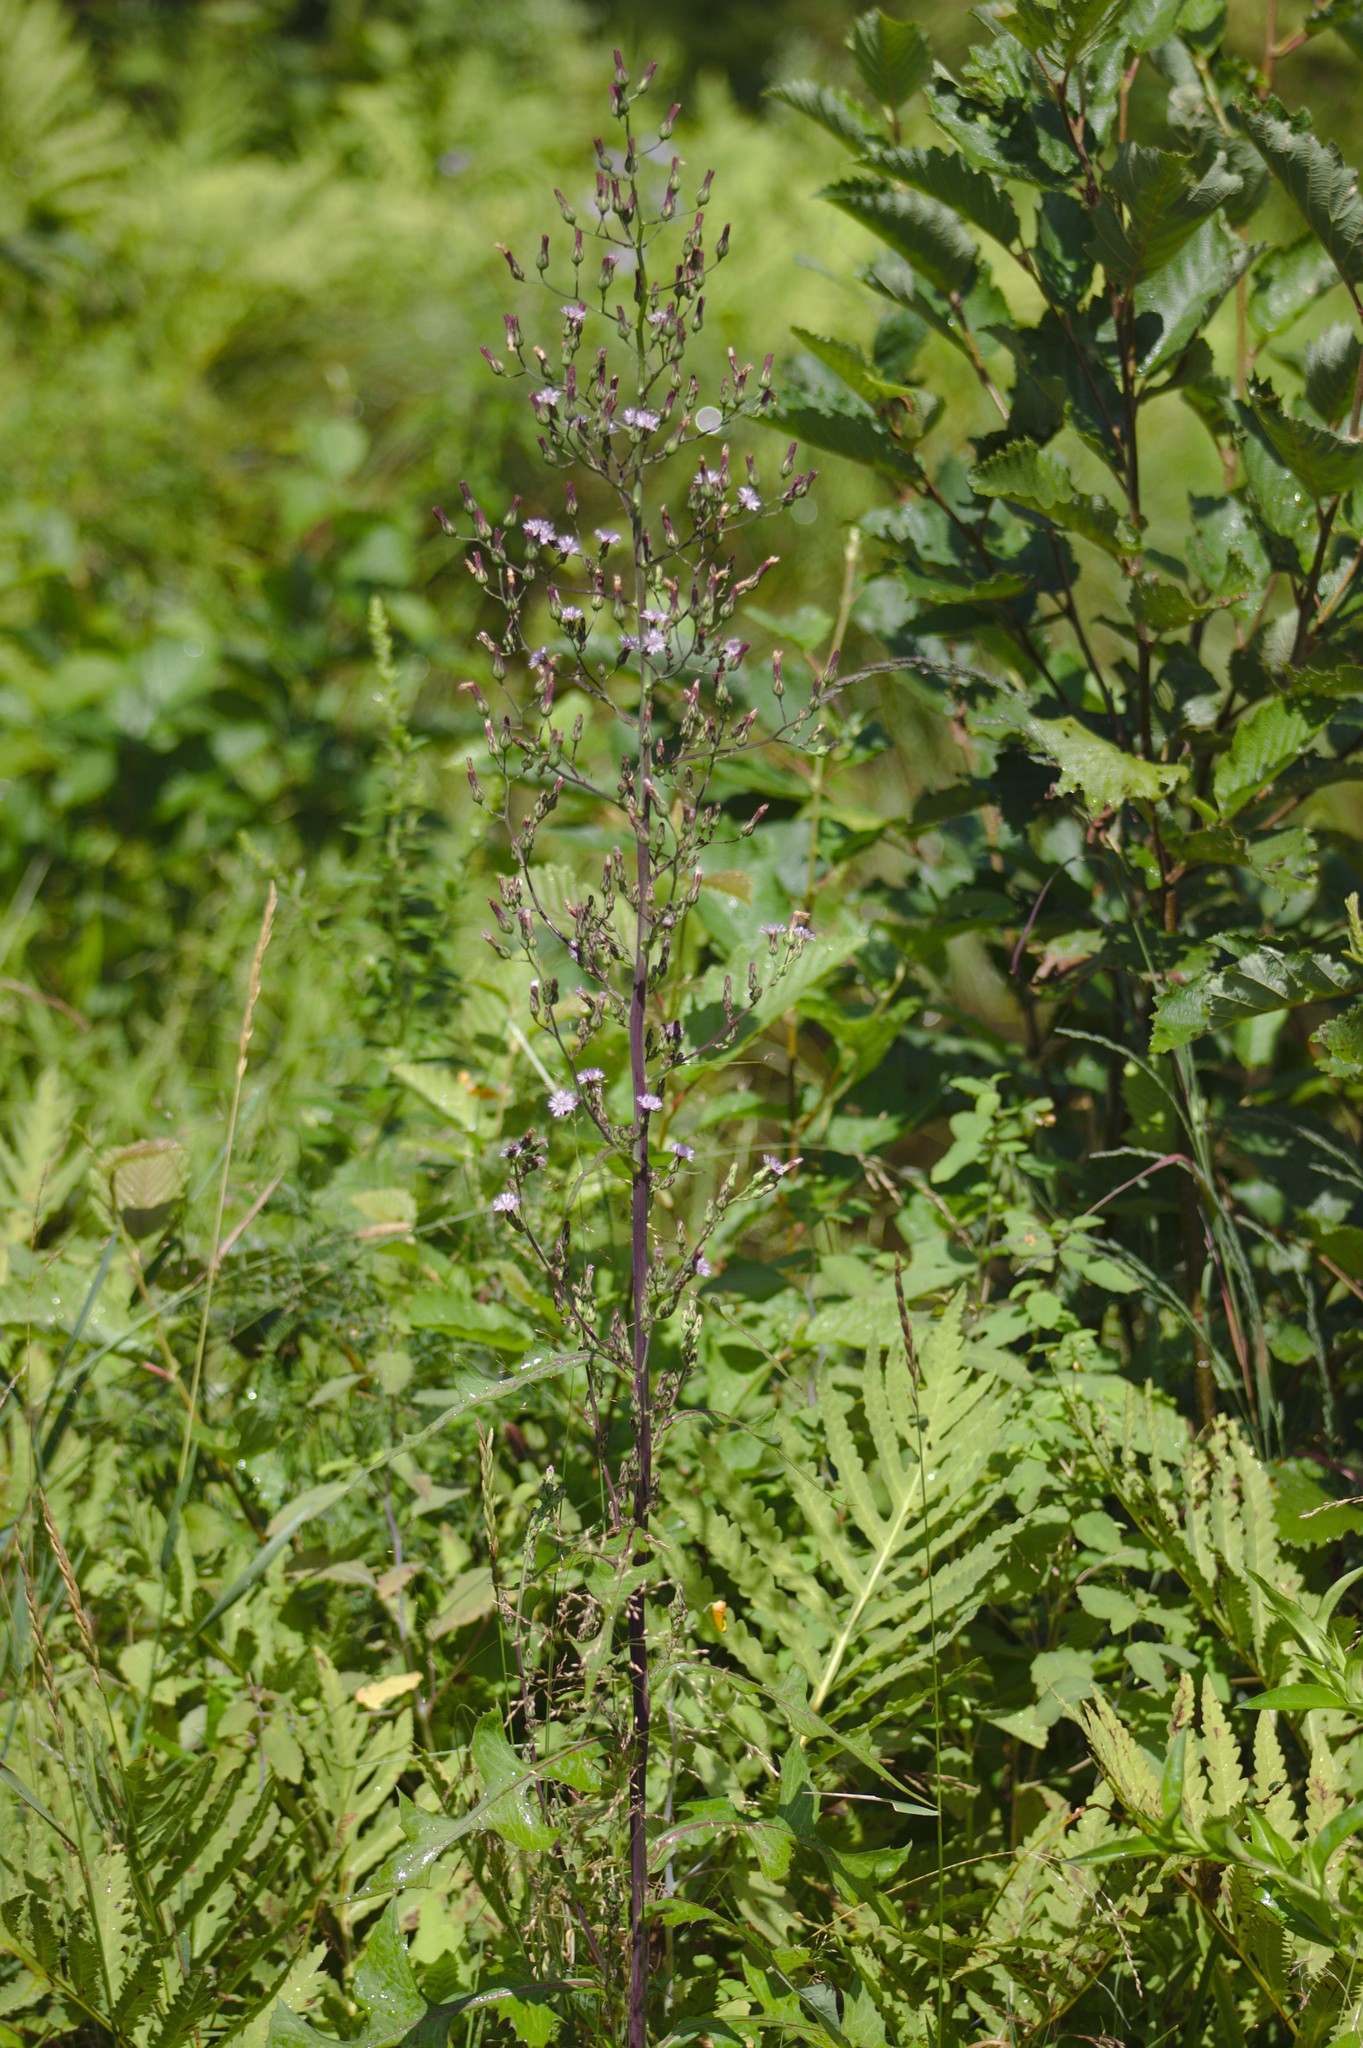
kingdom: Plantae
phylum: Tracheophyta
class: Magnoliopsida
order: Asterales
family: Asteraceae
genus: Lactuca
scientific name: Lactuca biennis
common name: Blue wood lettuce
